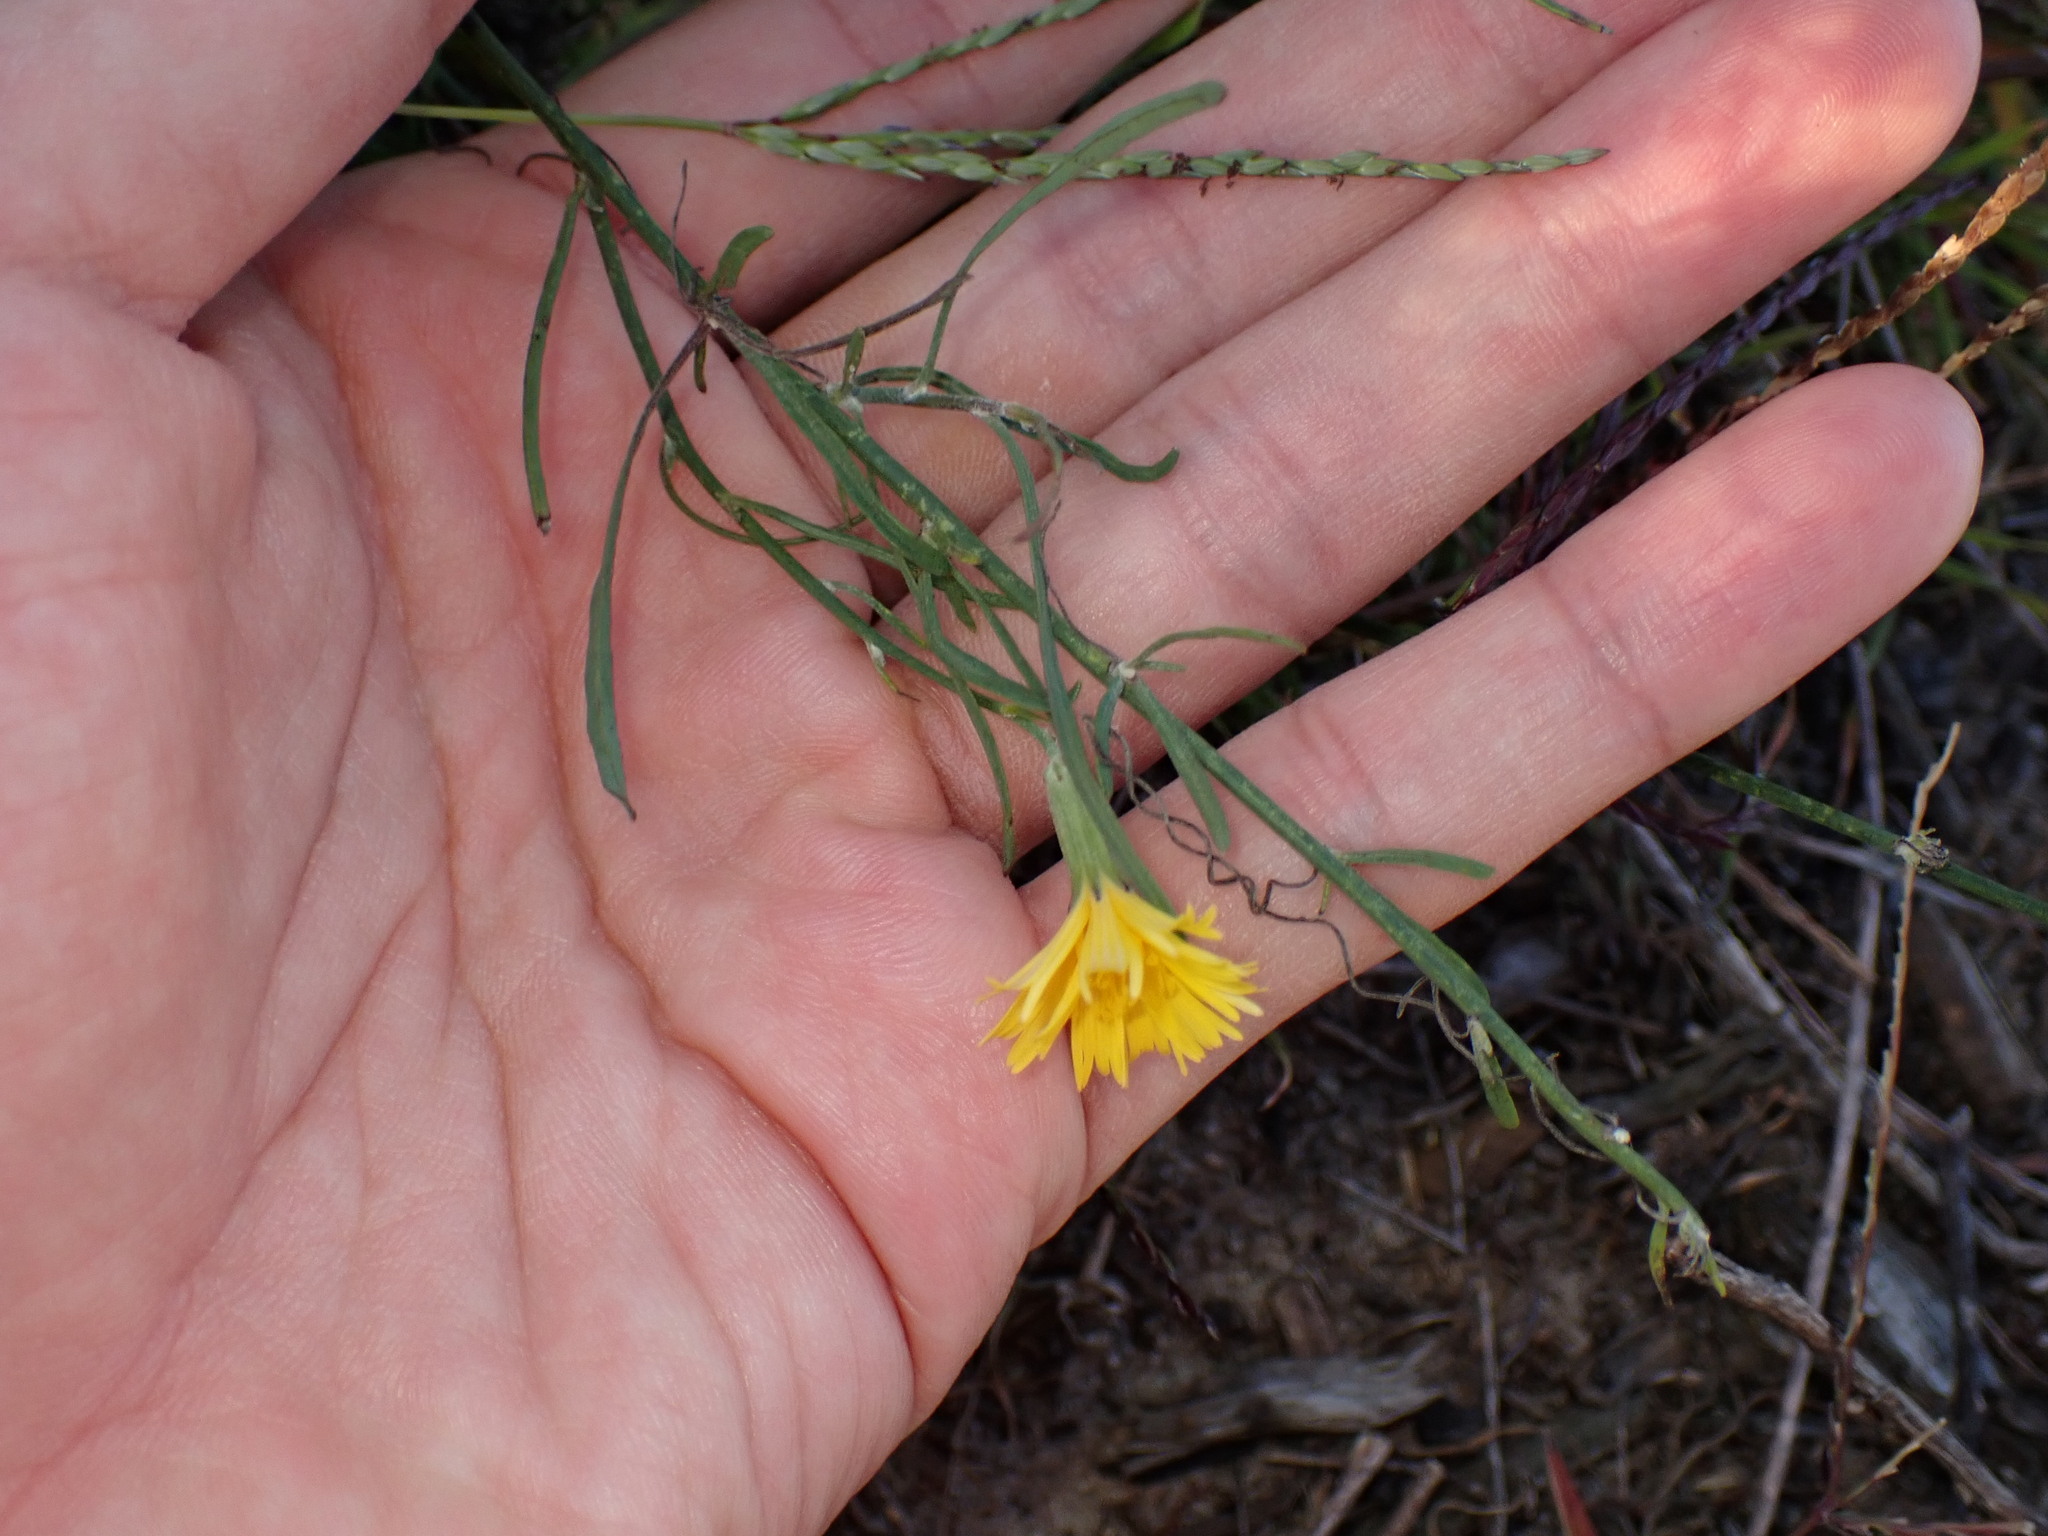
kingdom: Plantae
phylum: Tracheophyta
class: Magnoliopsida
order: Asterales
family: Asteraceae
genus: Chondrilla
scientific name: Chondrilla juncea
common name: Skeleton weed
